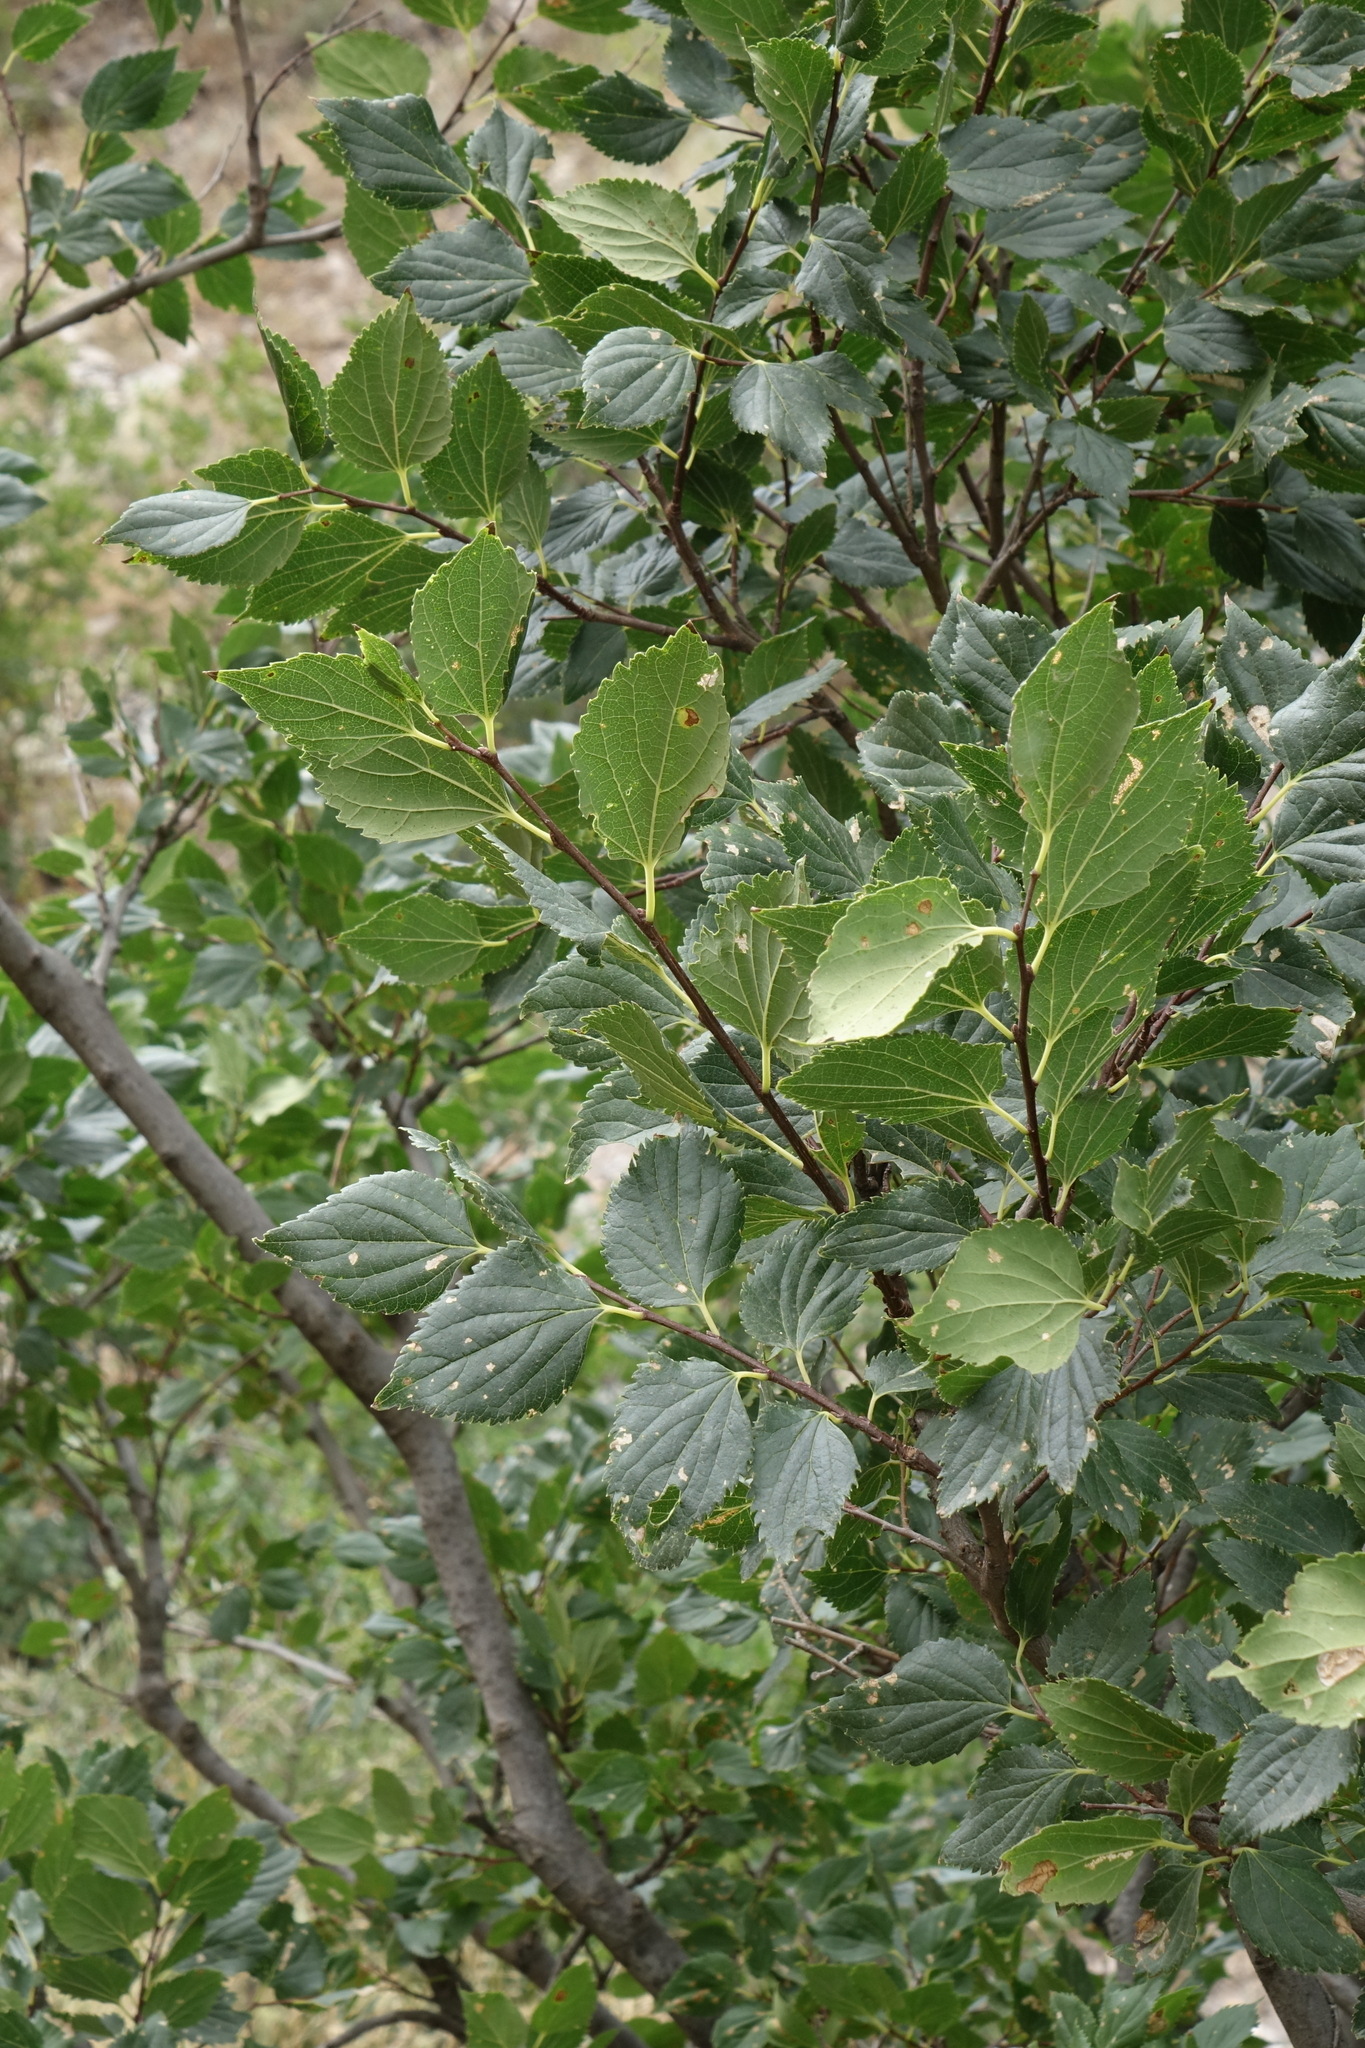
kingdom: Plantae
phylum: Tracheophyta
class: Magnoliopsida
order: Rosales
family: Cannabaceae
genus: Celtis
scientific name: Celtis glabrata
